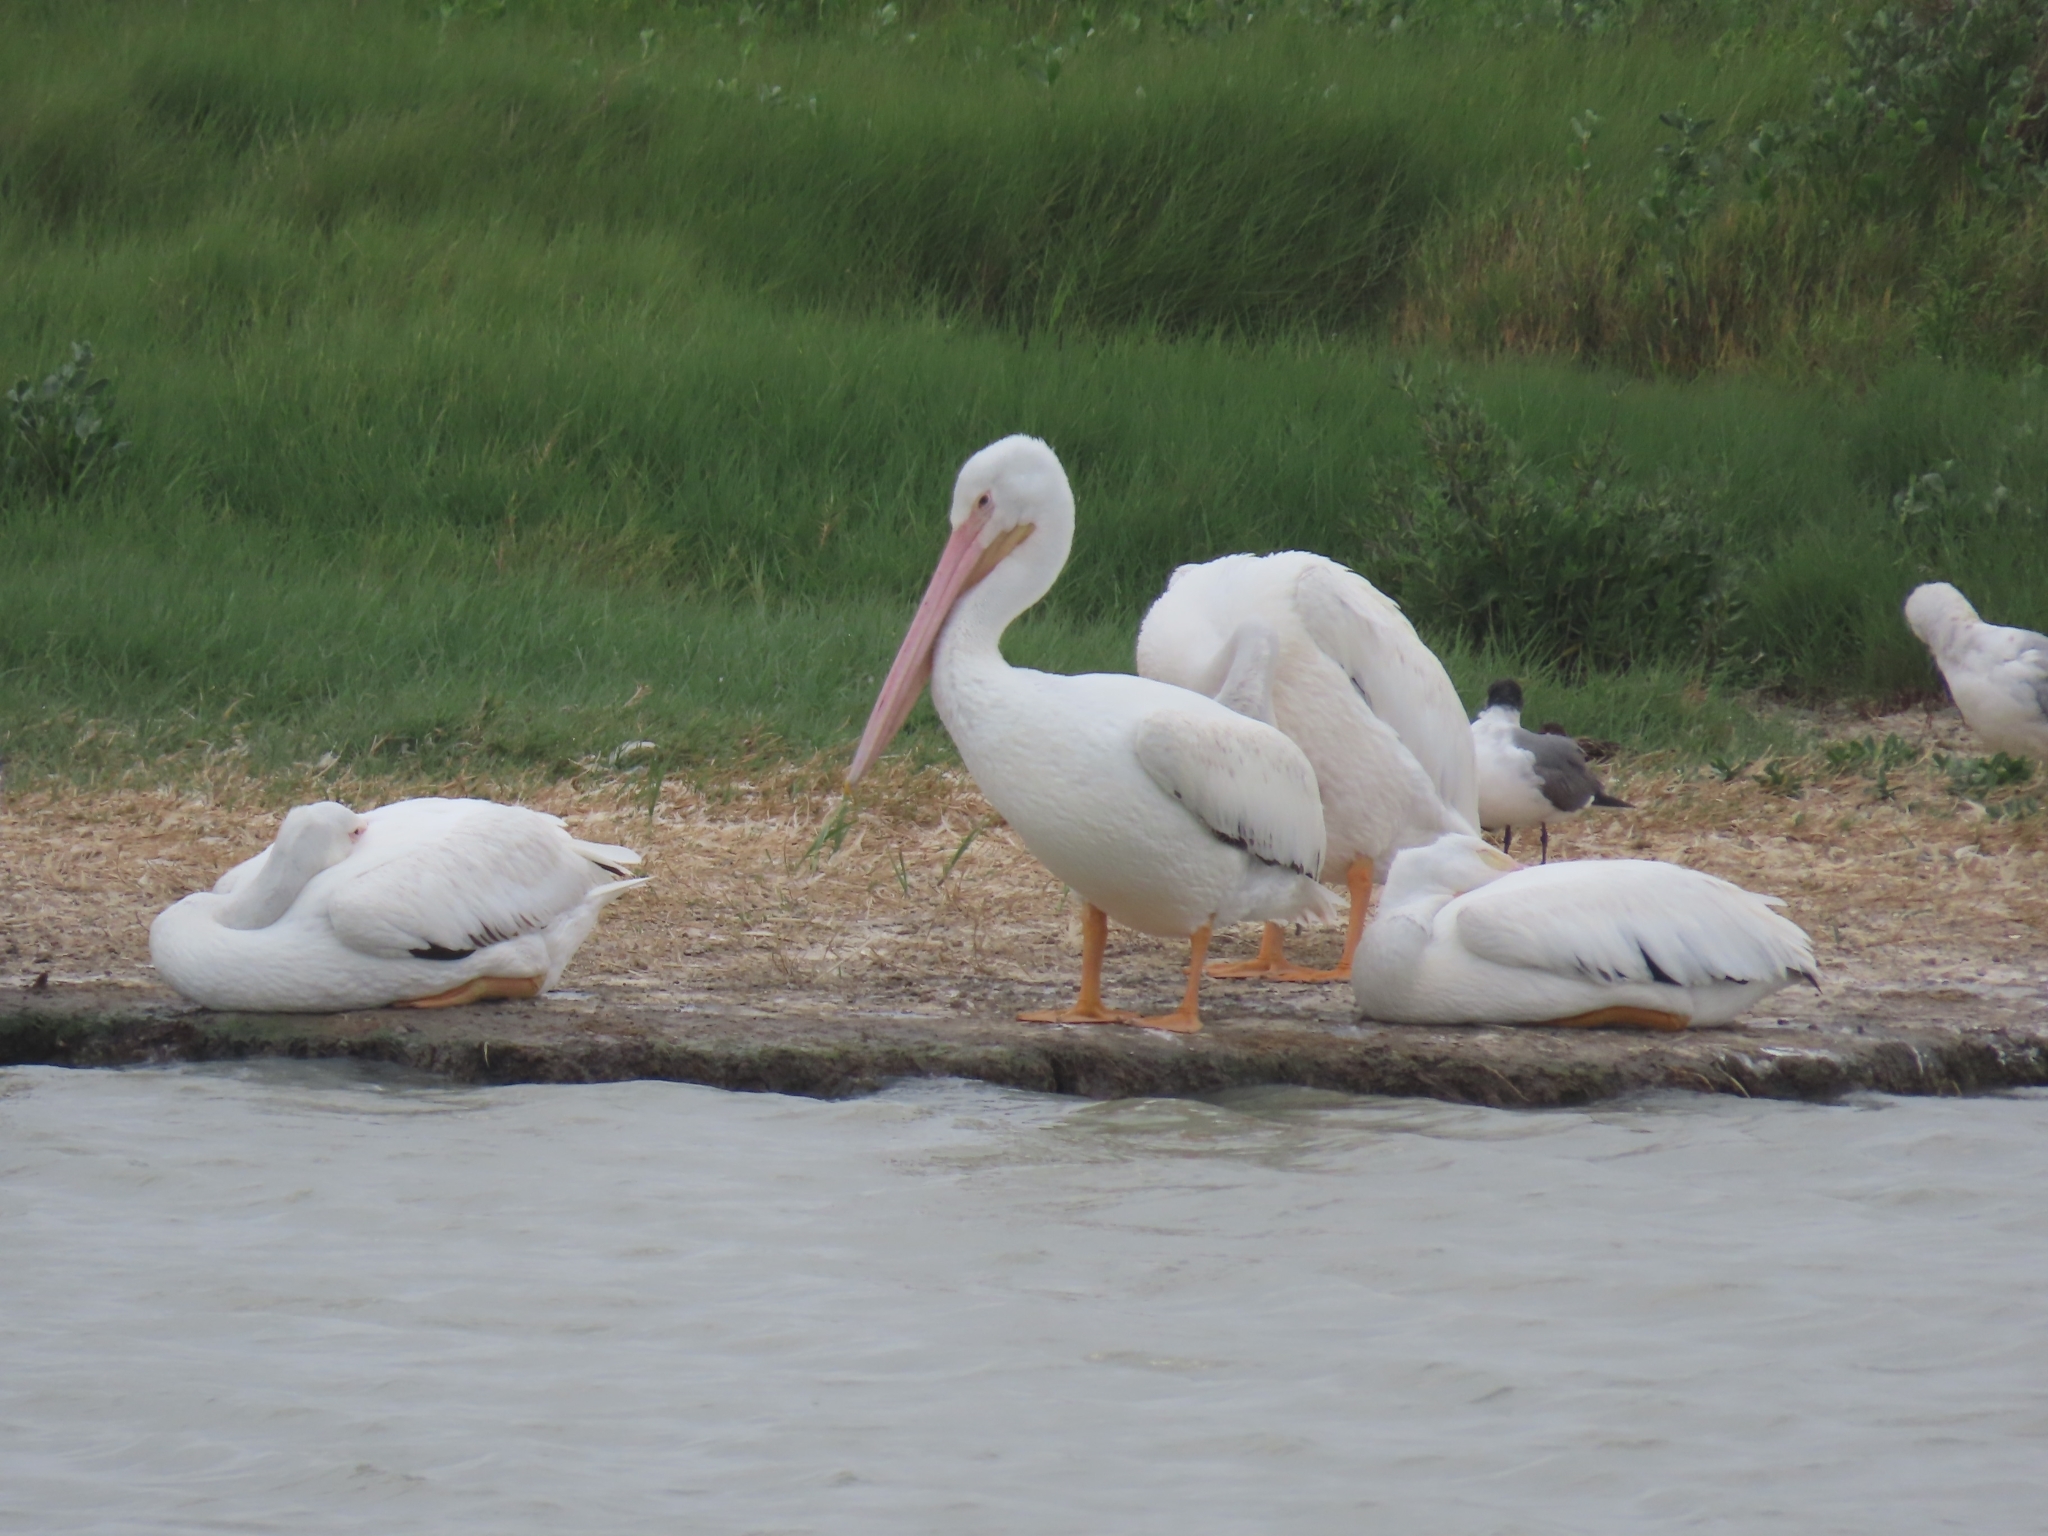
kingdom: Animalia
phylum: Chordata
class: Aves
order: Pelecaniformes
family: Pelecanidae
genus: Pelecanus
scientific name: Pelecanus erythrorhynchos
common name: American white pelican
